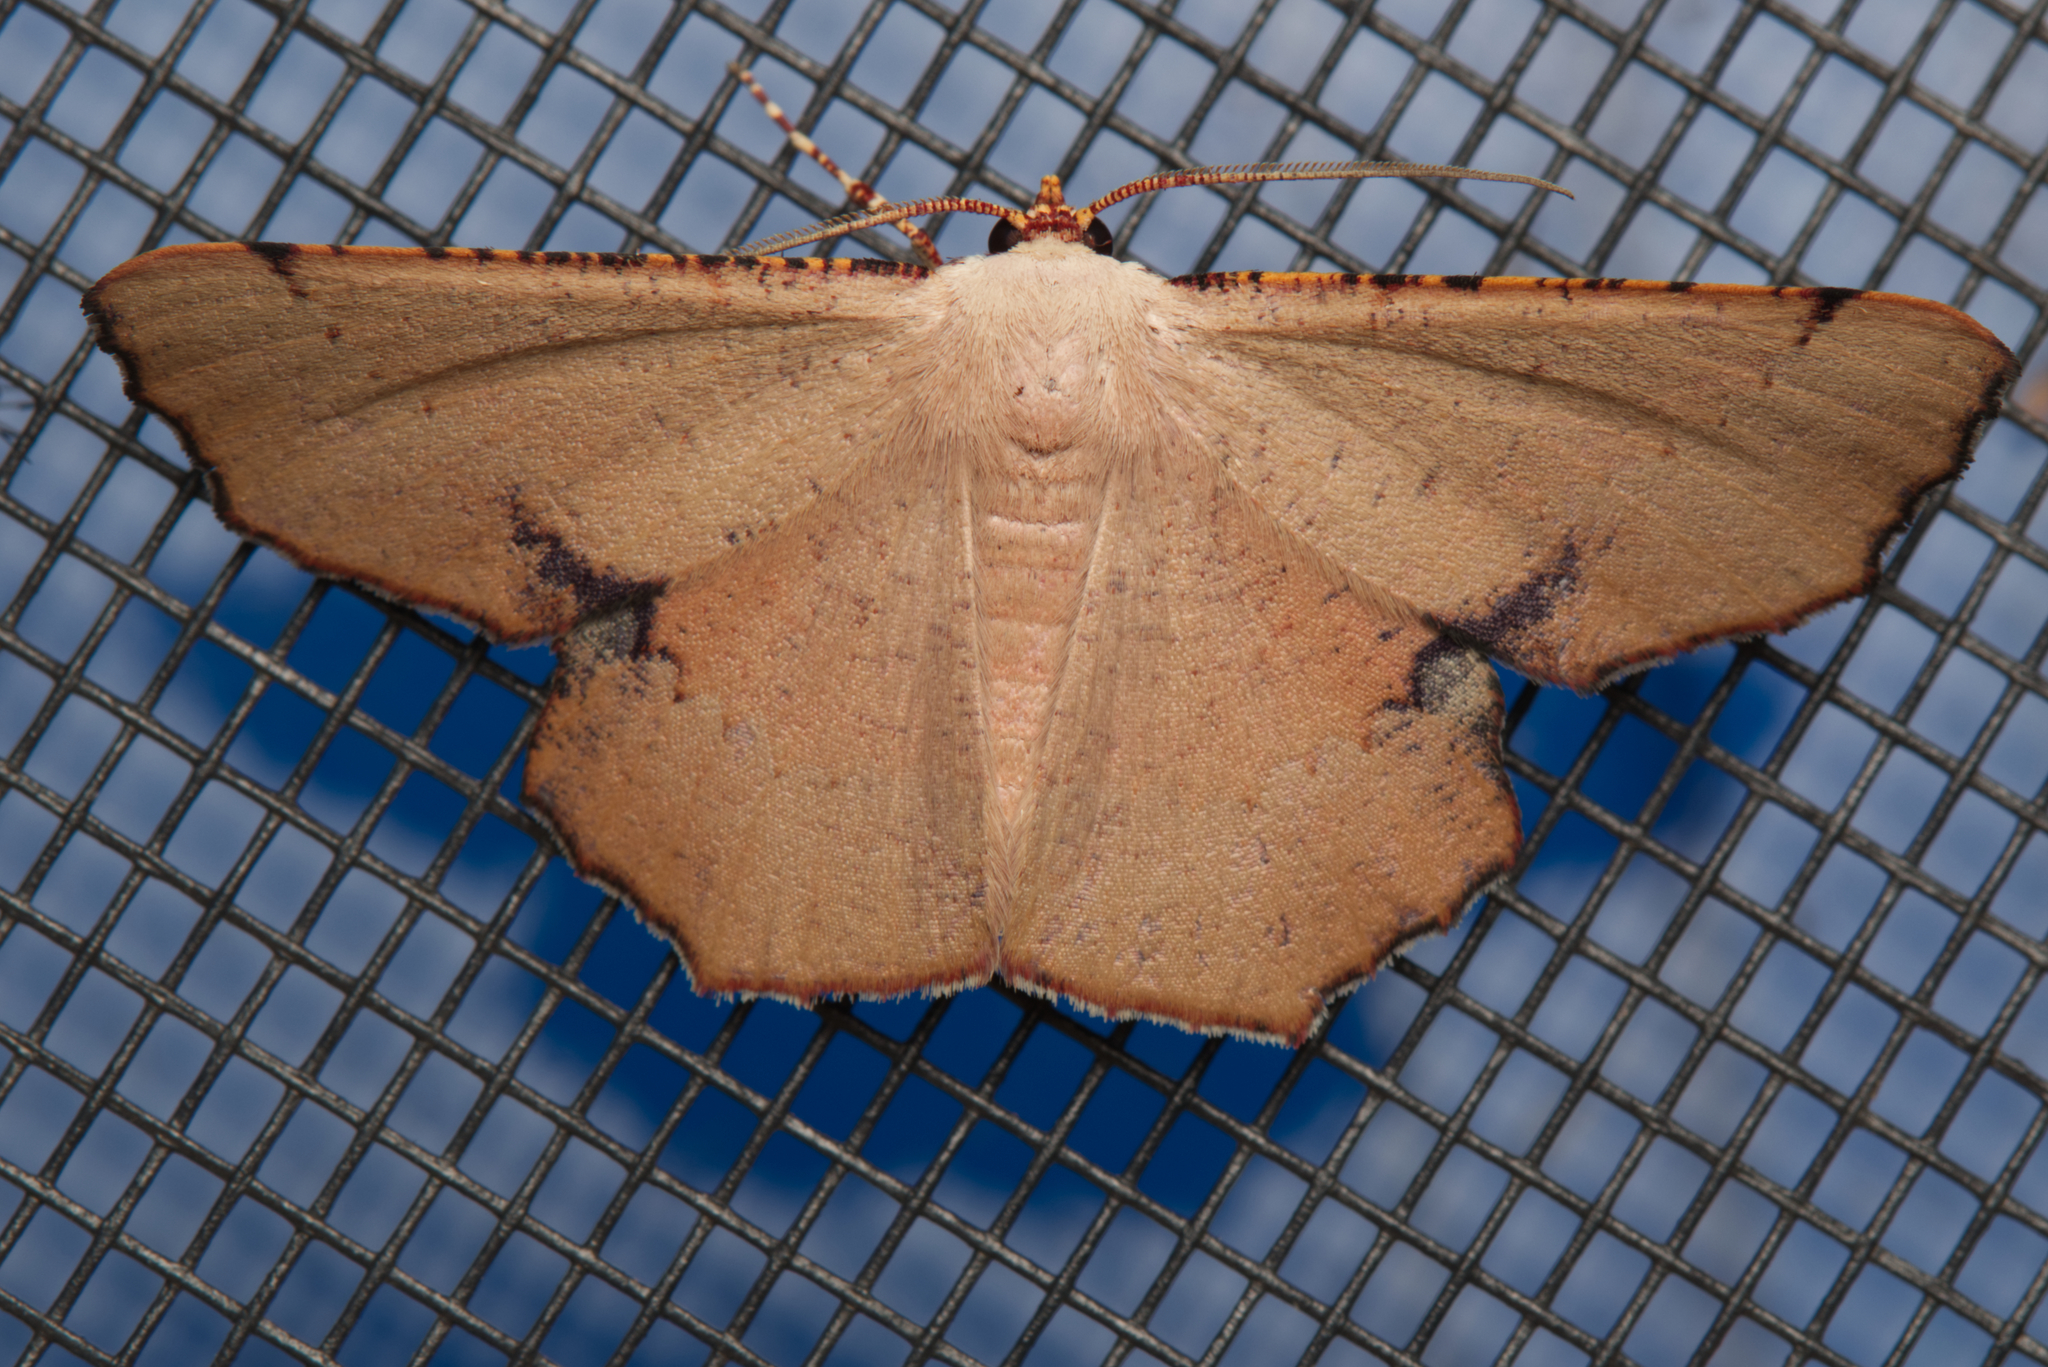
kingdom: Animalia
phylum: Arthropoda
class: Insecta
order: Lepidoptera
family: Geometridae
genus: Cernia
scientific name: Cernia amyclaria
